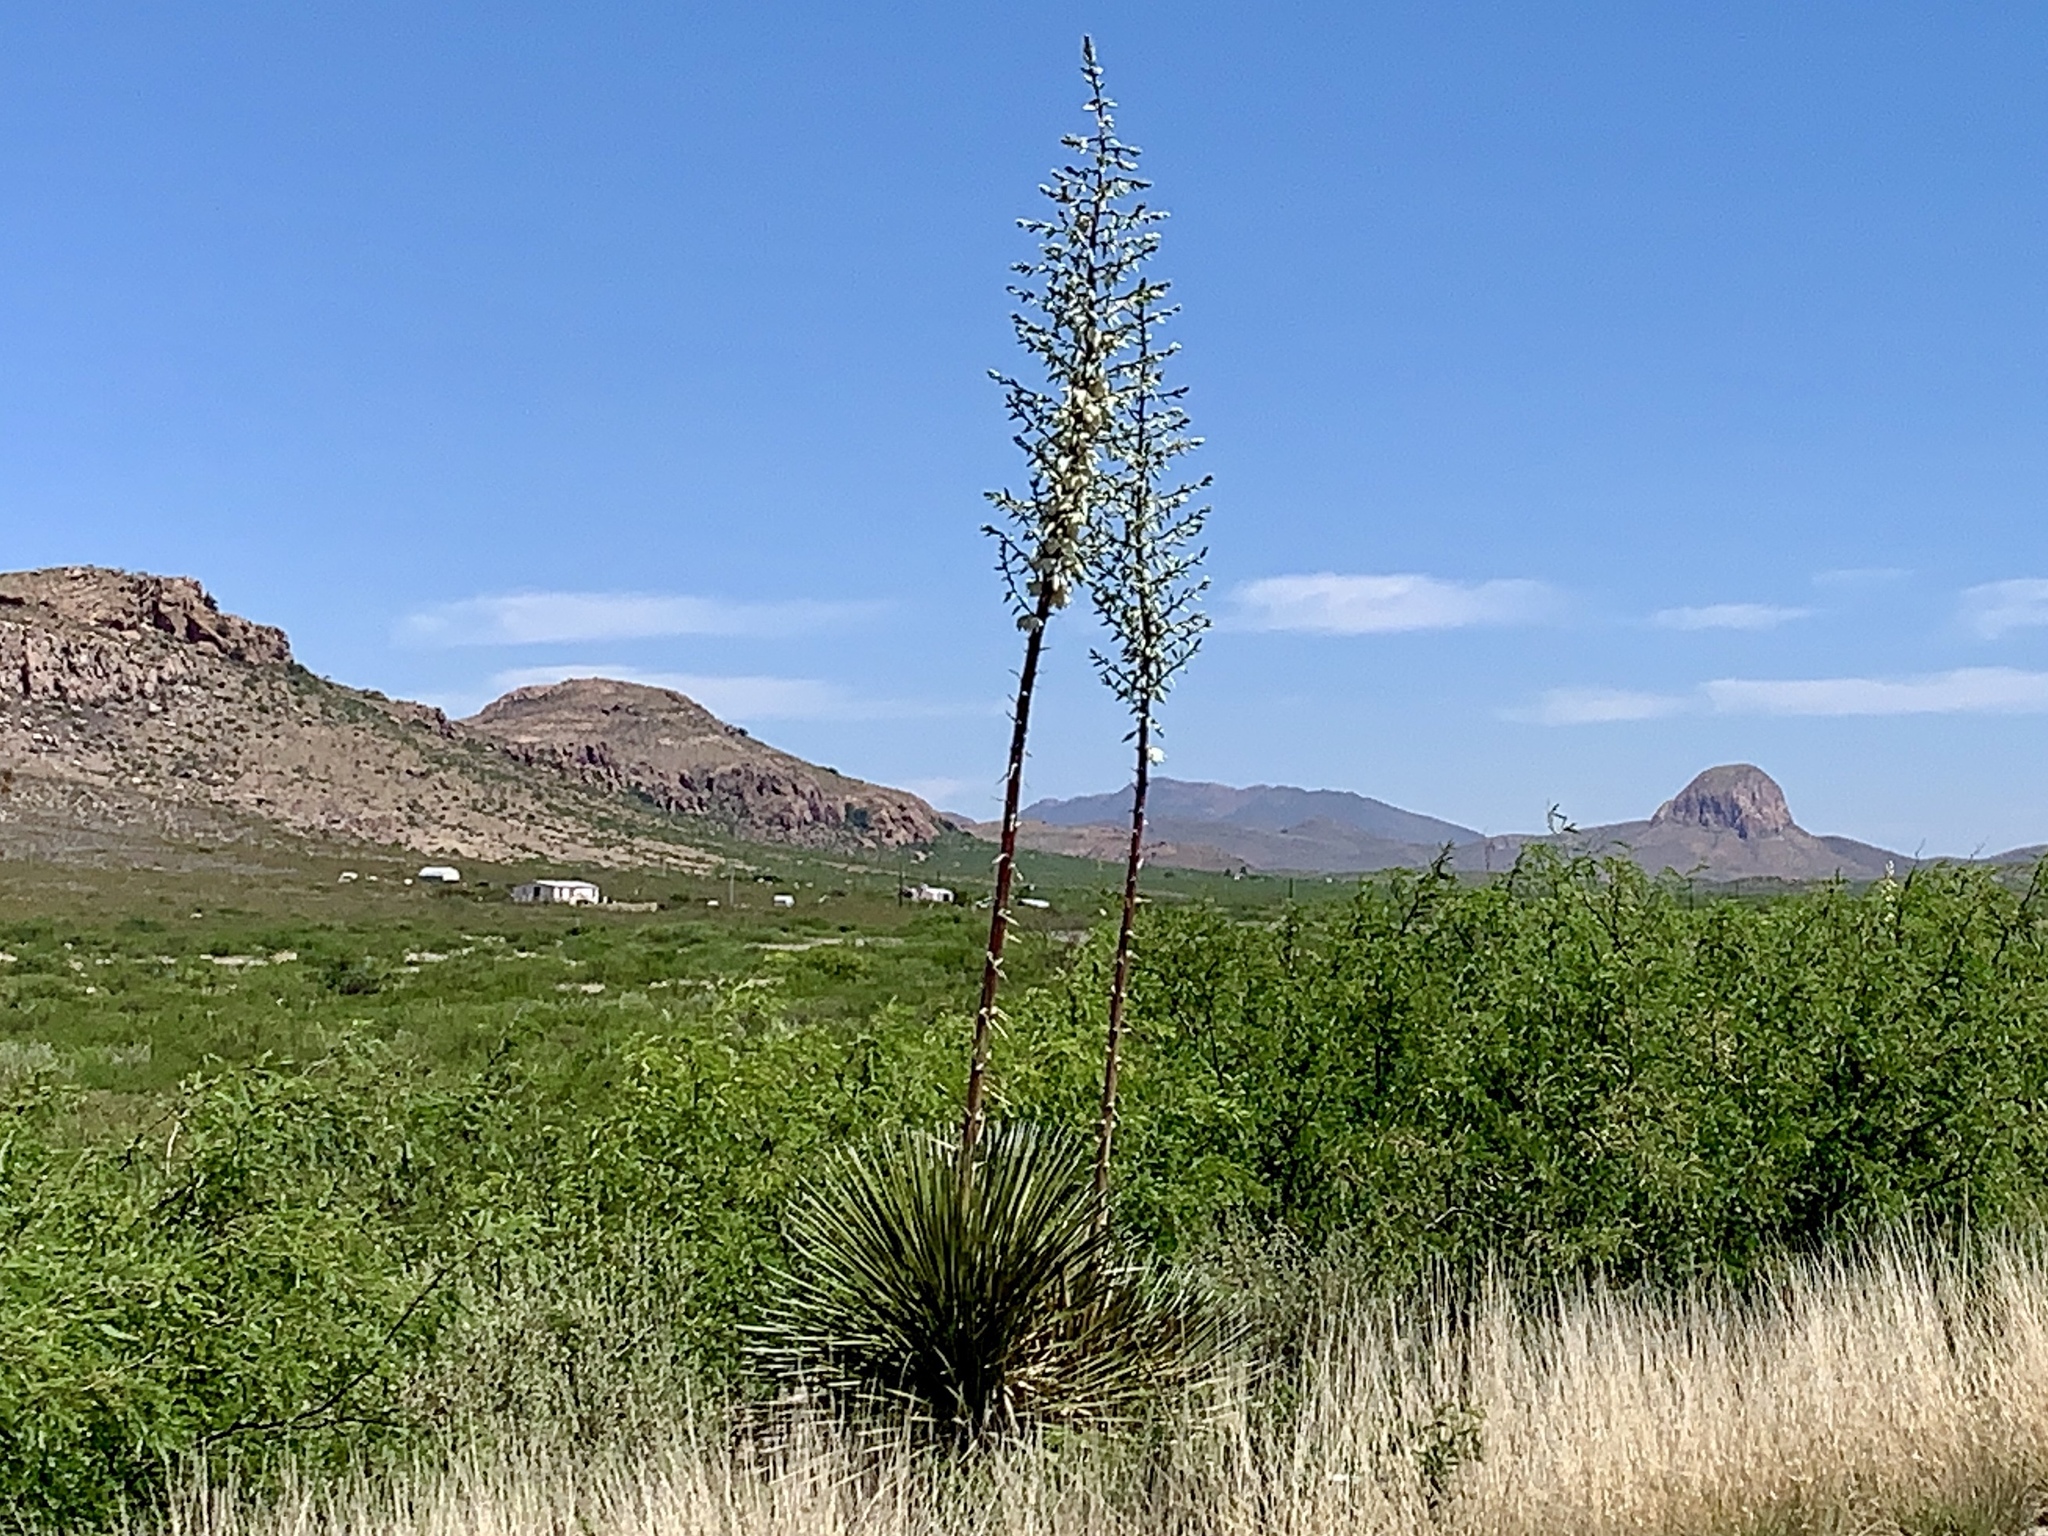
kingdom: Plantae
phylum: Tracheophyta
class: Liliopsida
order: Asparagales
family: Asparagaceae
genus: Yucca
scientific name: Yucca elata
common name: Palmella
